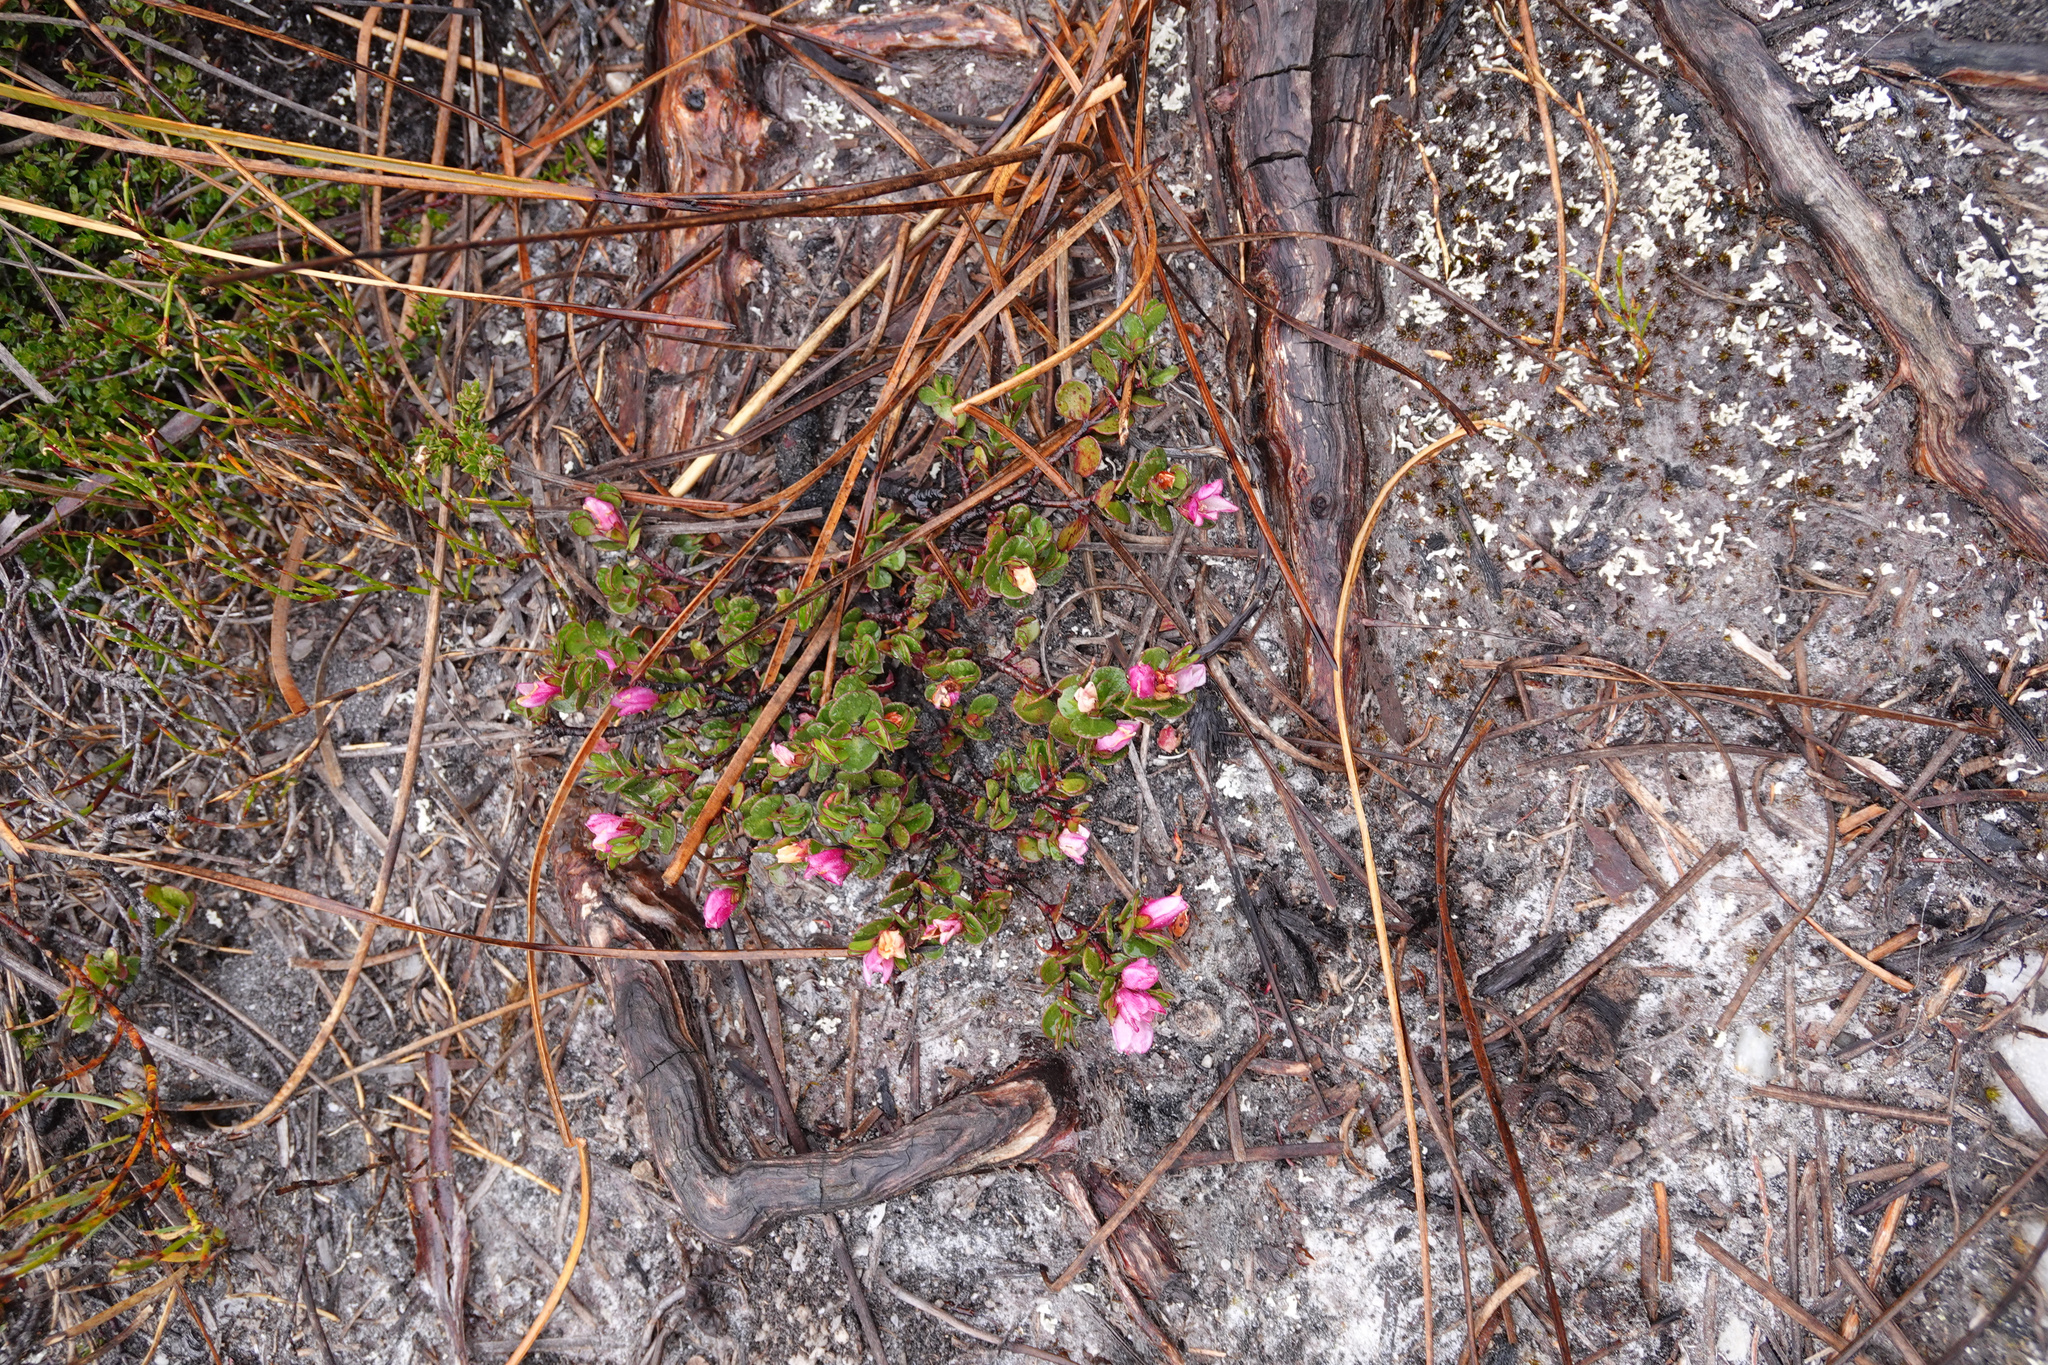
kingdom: Plantae
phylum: Tracheophyta
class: Magnoliopsida
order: Sapindales
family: Rutaceae
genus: Boronia
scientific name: Boronia rhomboidea
